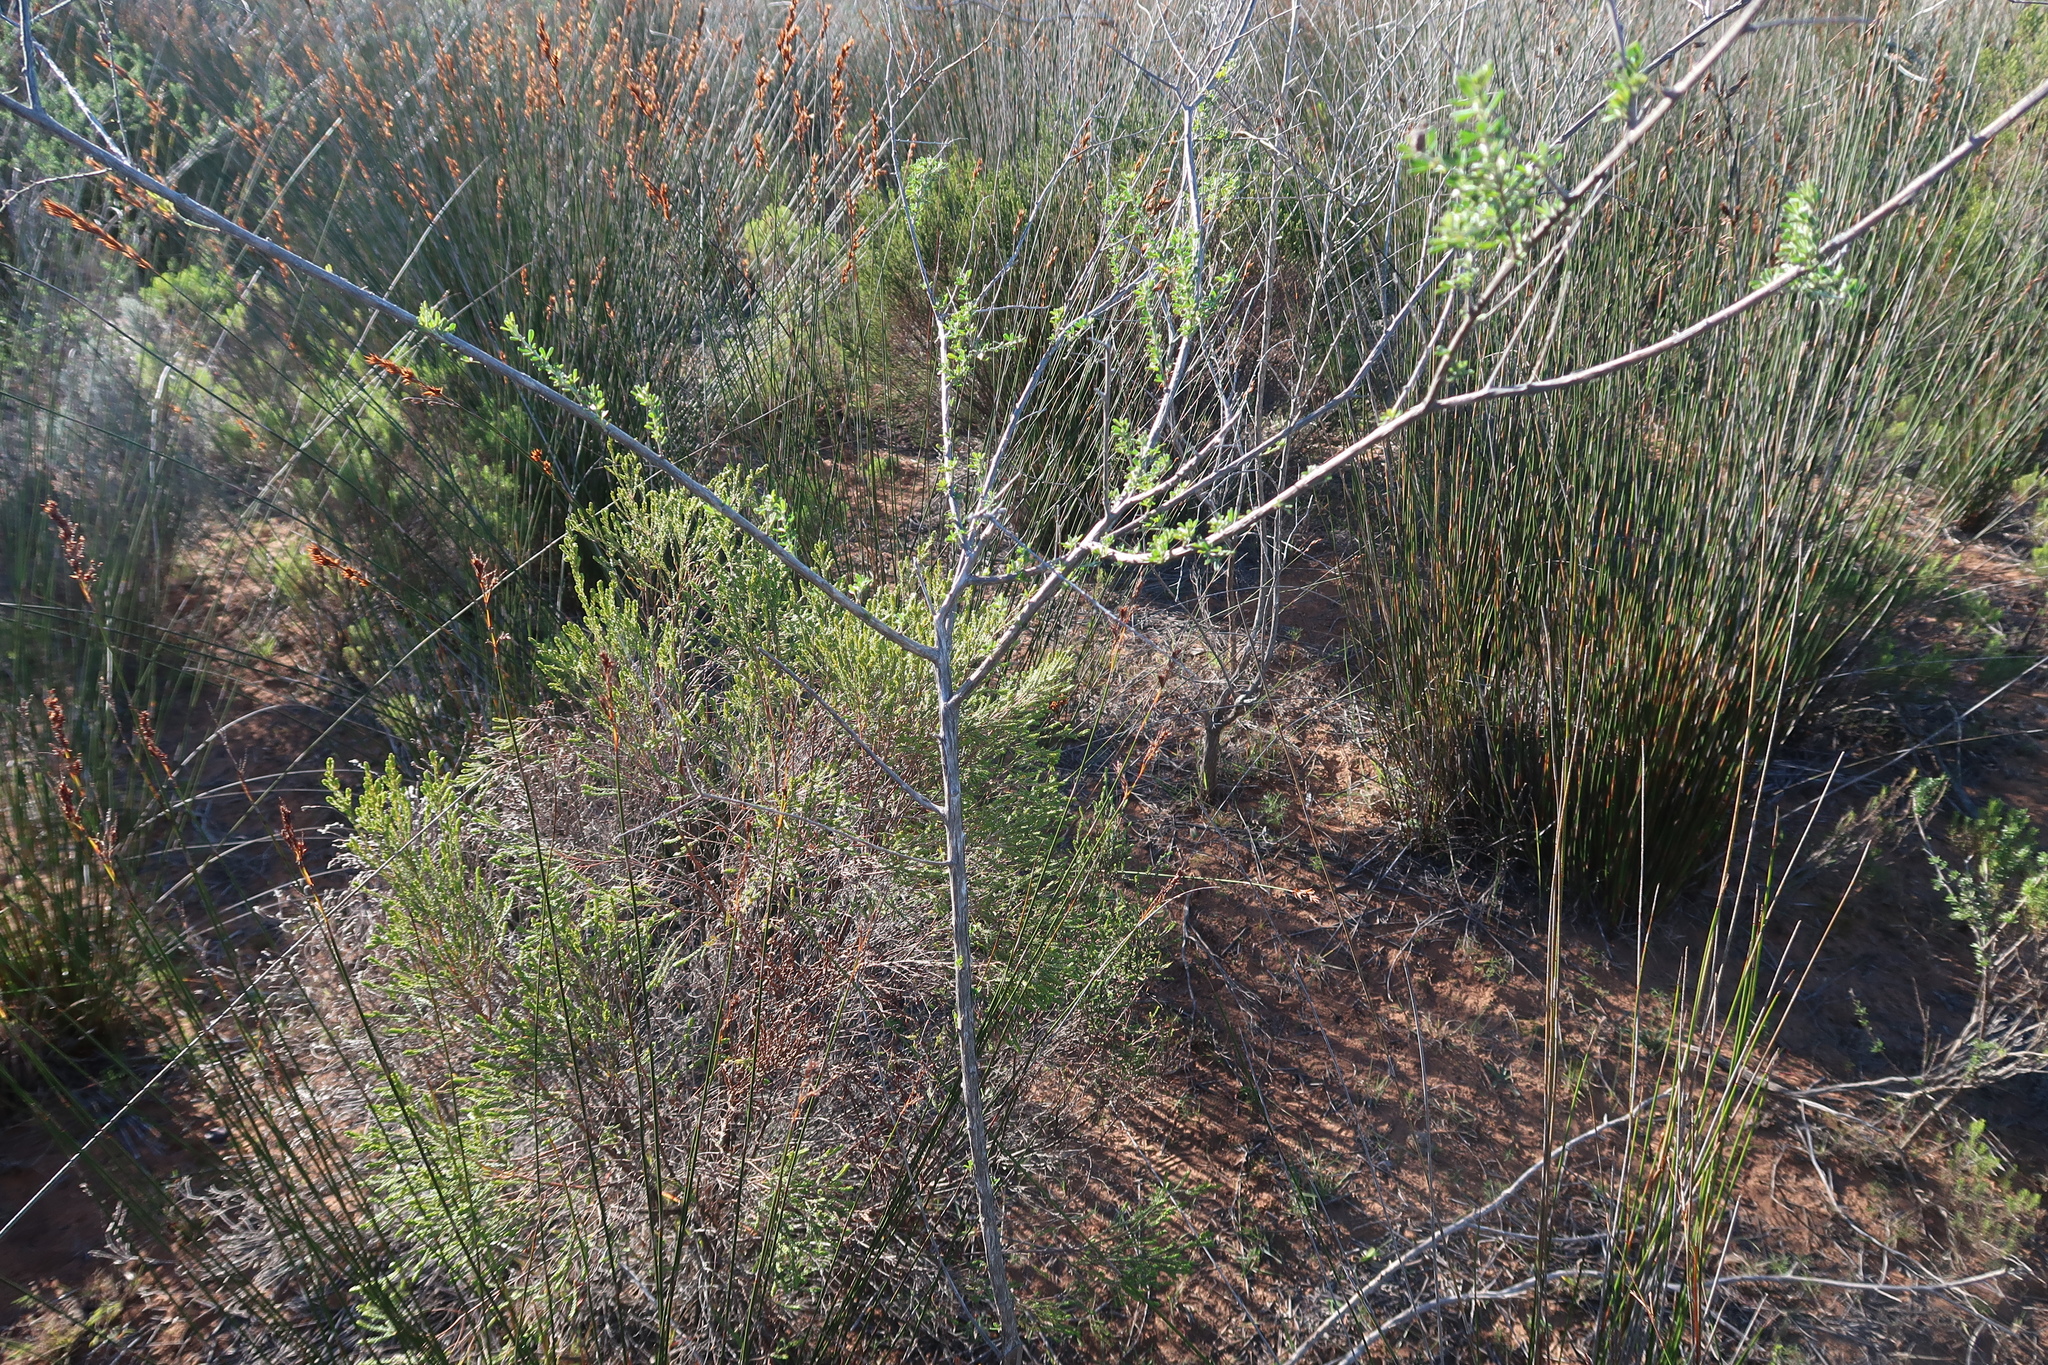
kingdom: Plantae
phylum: Tracheophyta
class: Magnoliopsida
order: Fabales
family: Fabaceae
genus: Wiborgia
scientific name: Wiborgia obcordata
